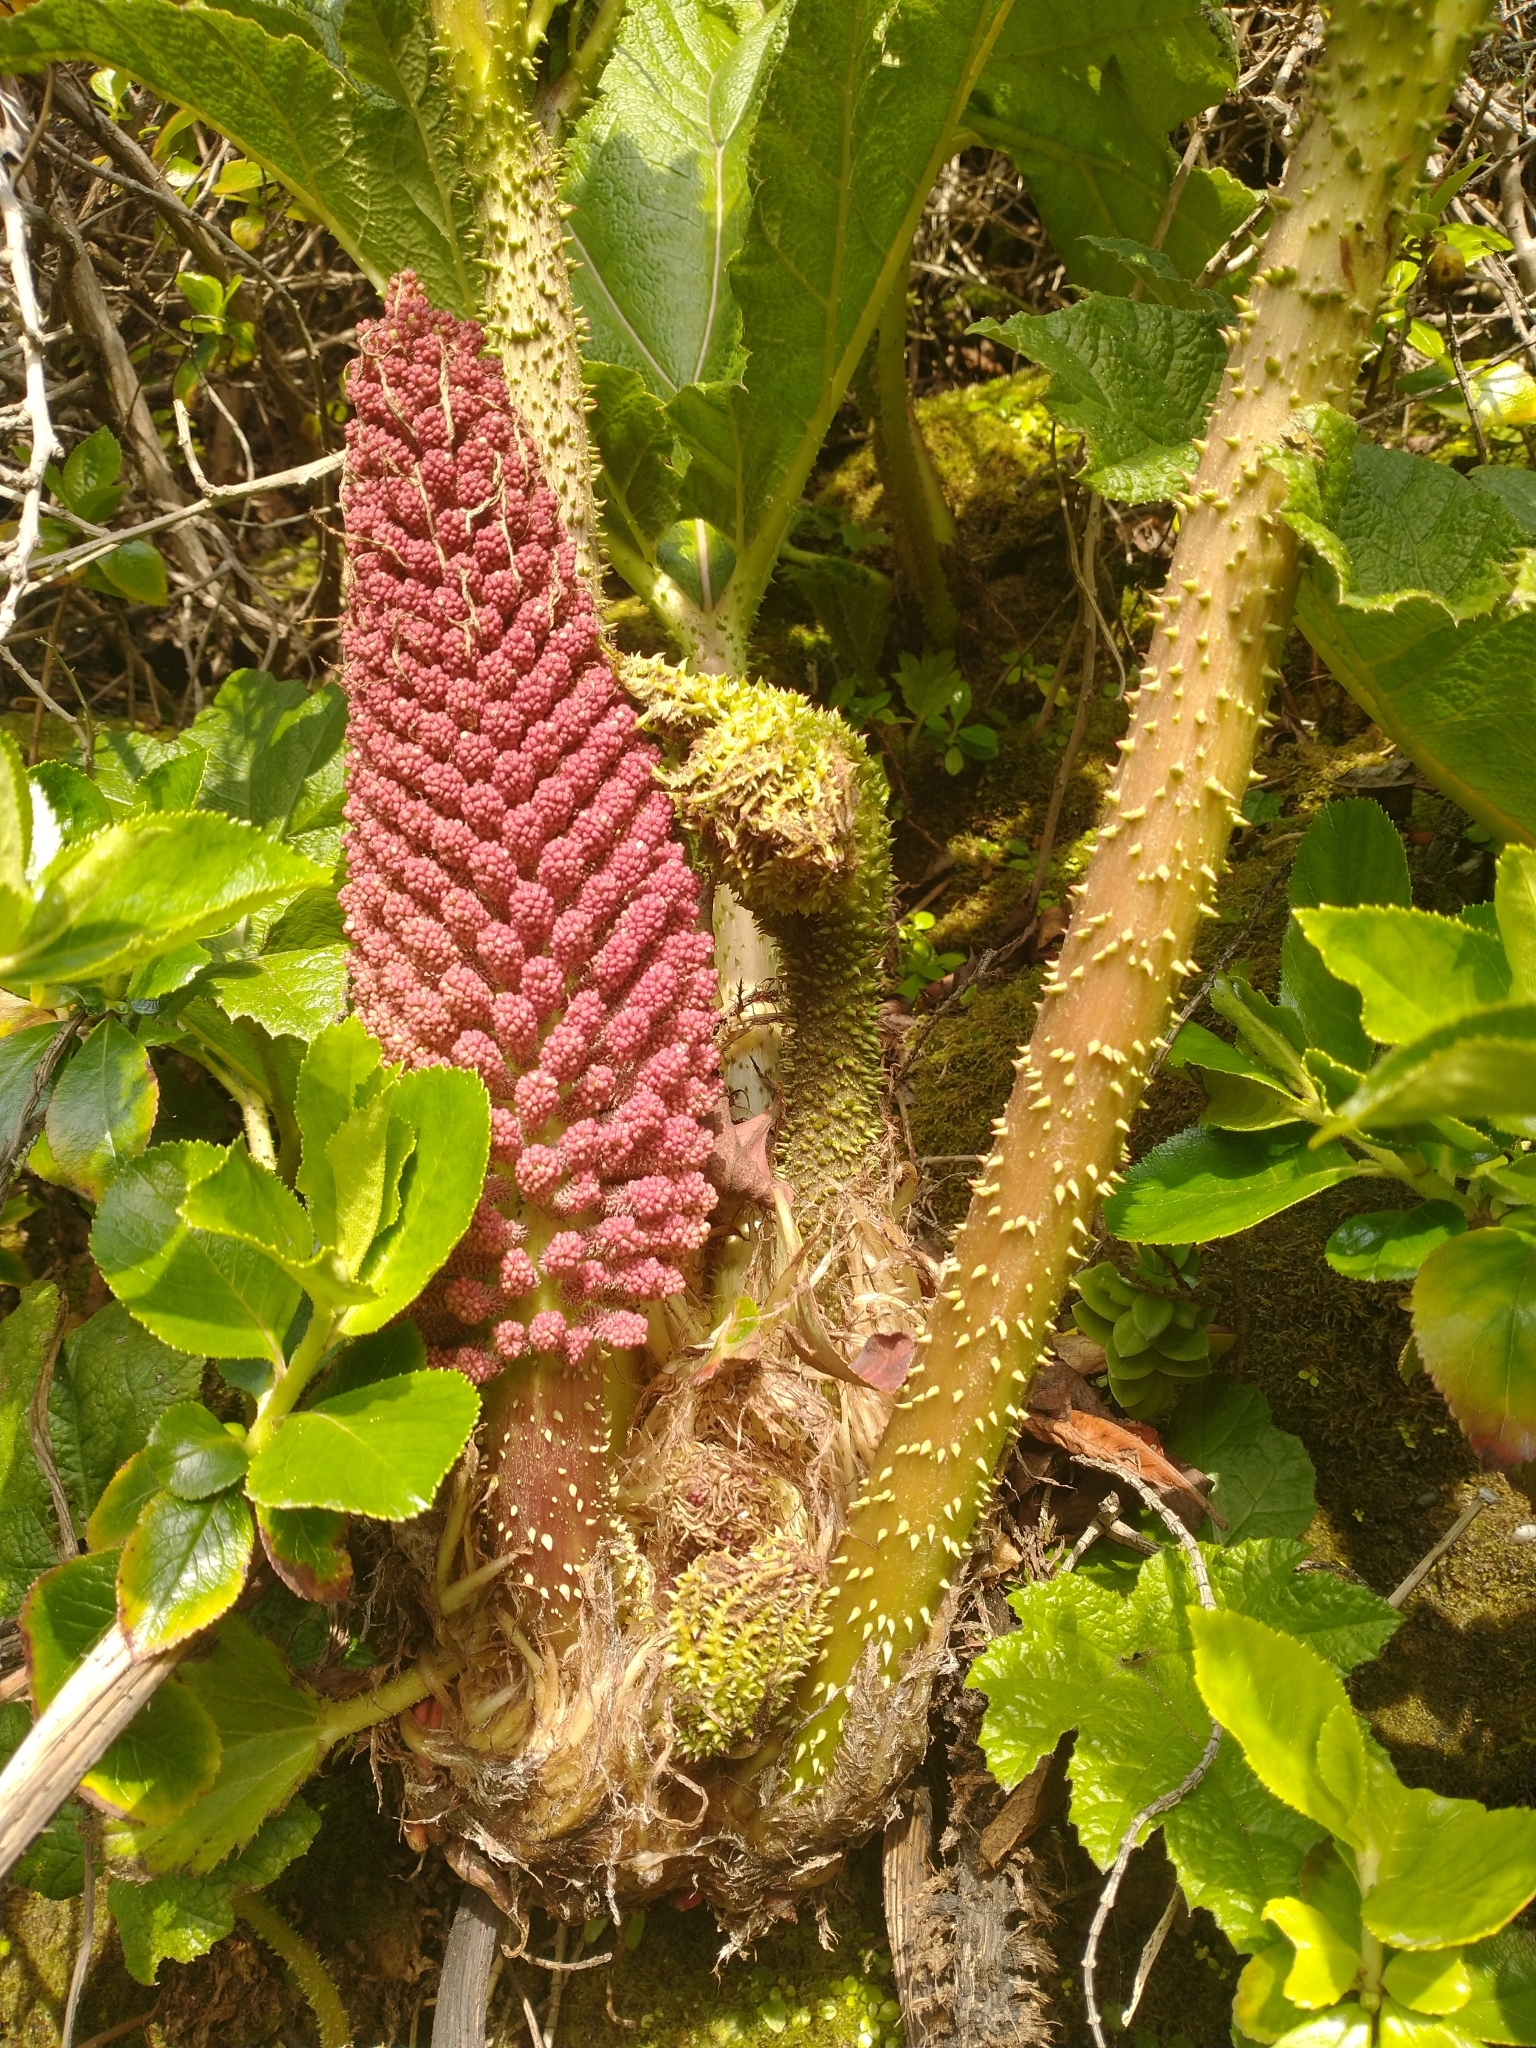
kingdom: Plantae
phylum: Tracheophyta
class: Magnoliopsida
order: Gunnerales
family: Gunneraceae
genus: Gunnera
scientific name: Gunnera tinctoria
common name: Giant-rhubarb
